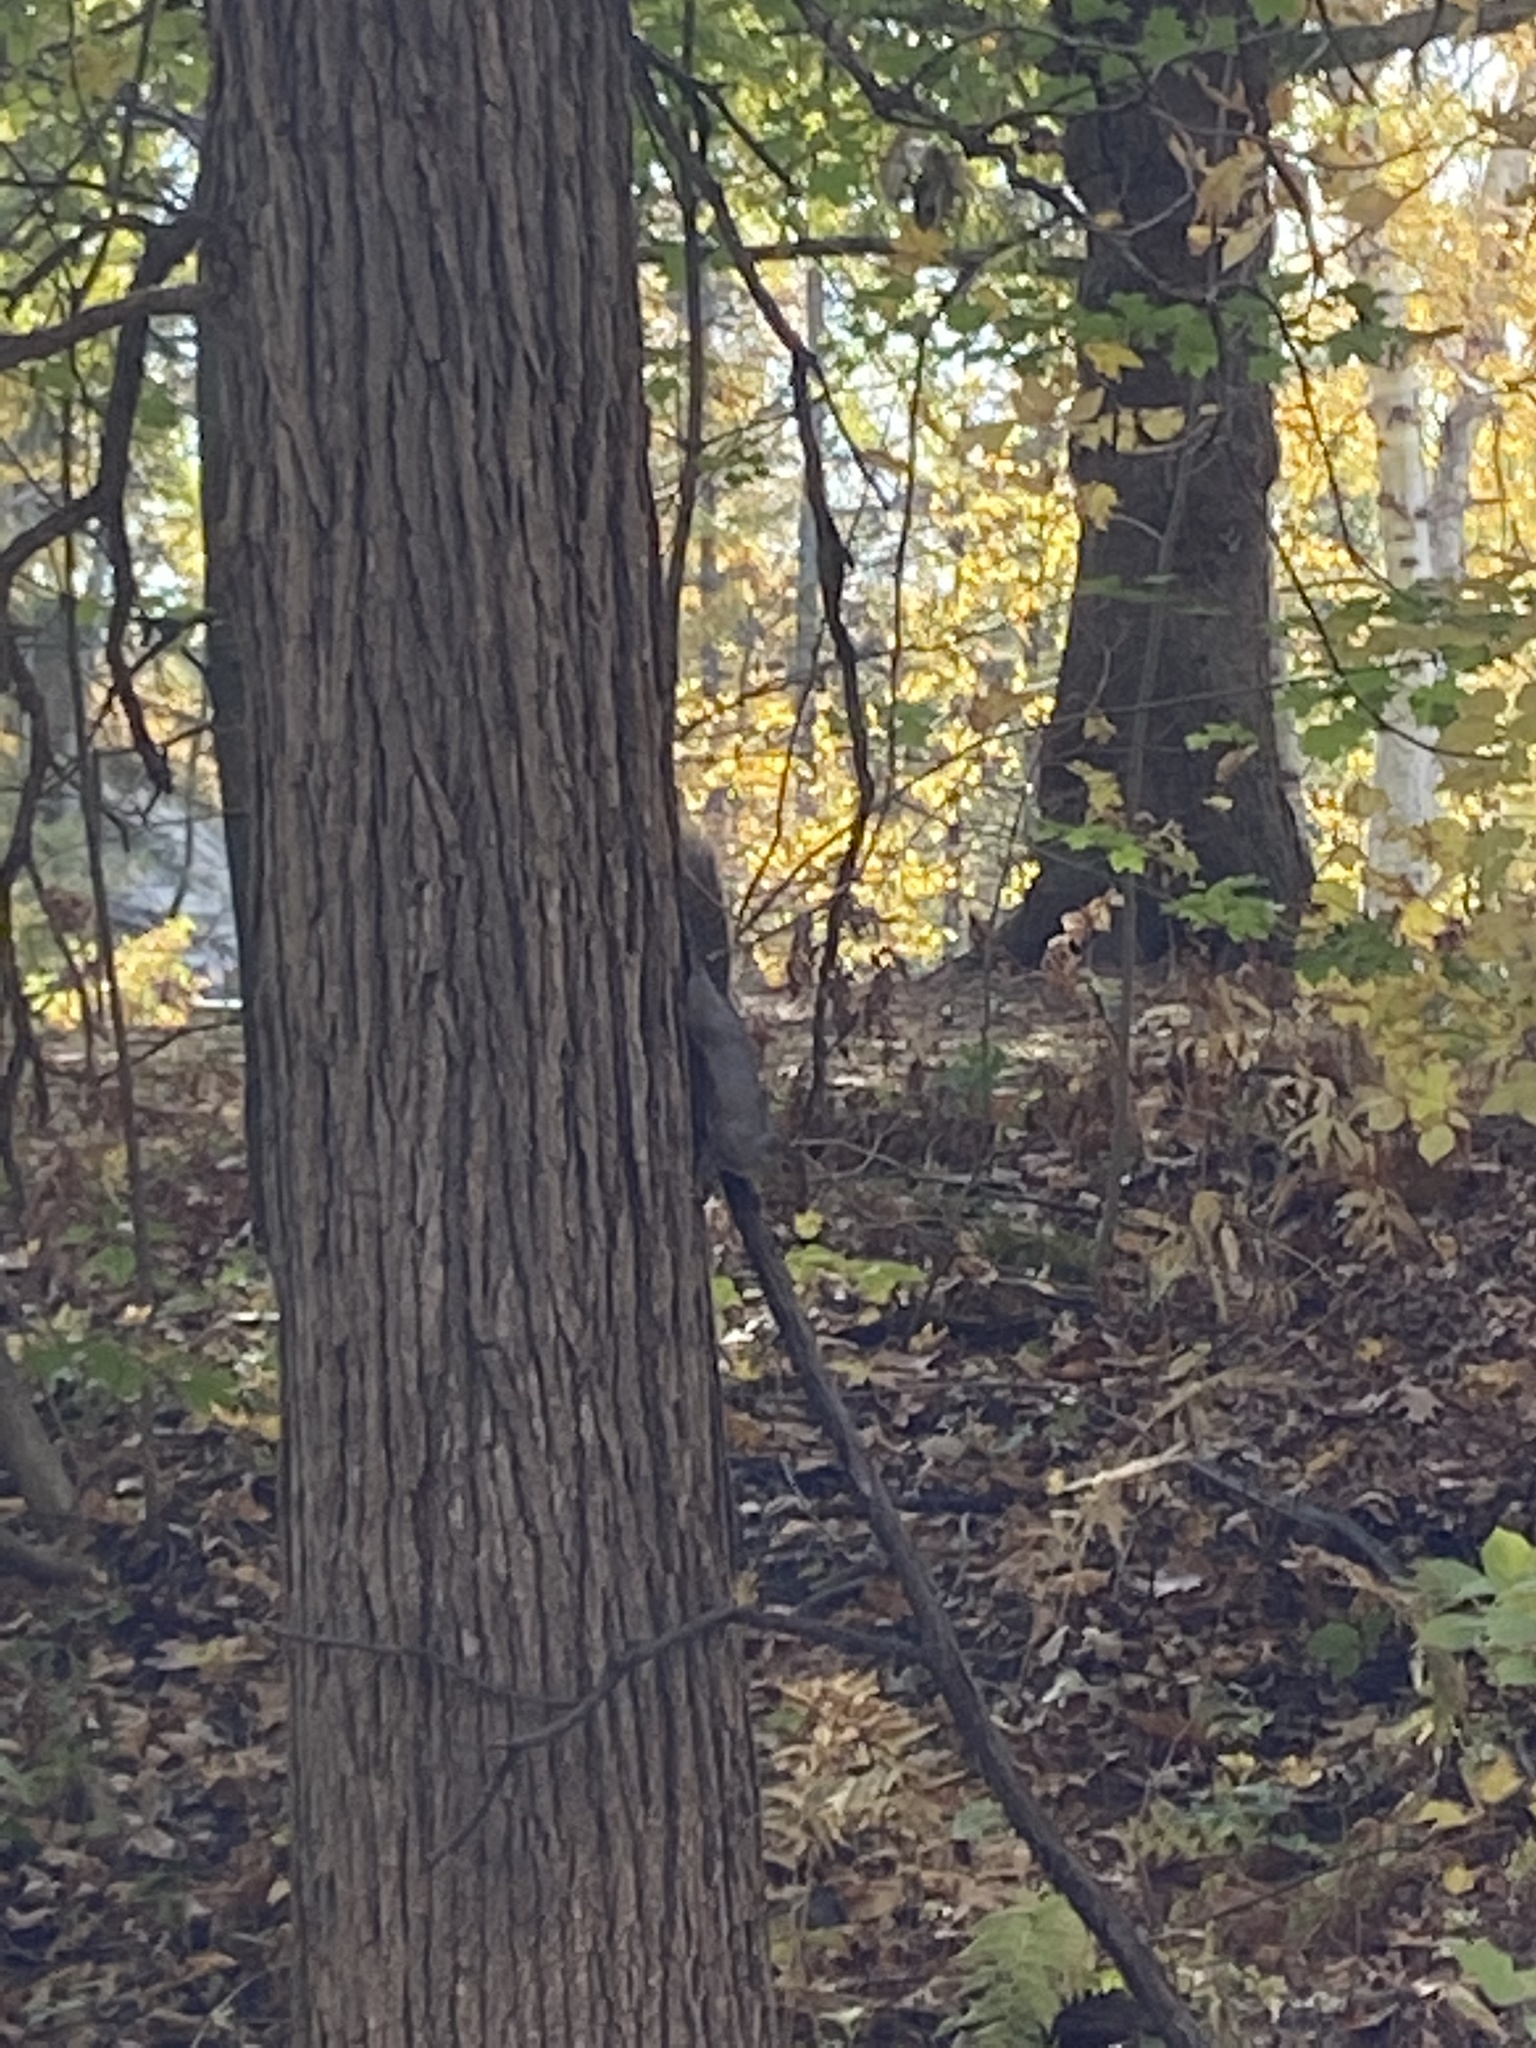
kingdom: Animalia
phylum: Chordata
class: Mammalia
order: Rodentia
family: Sciuridae
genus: Sciurus
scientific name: Sciurus carolinensis
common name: Eastern gray squirrel
